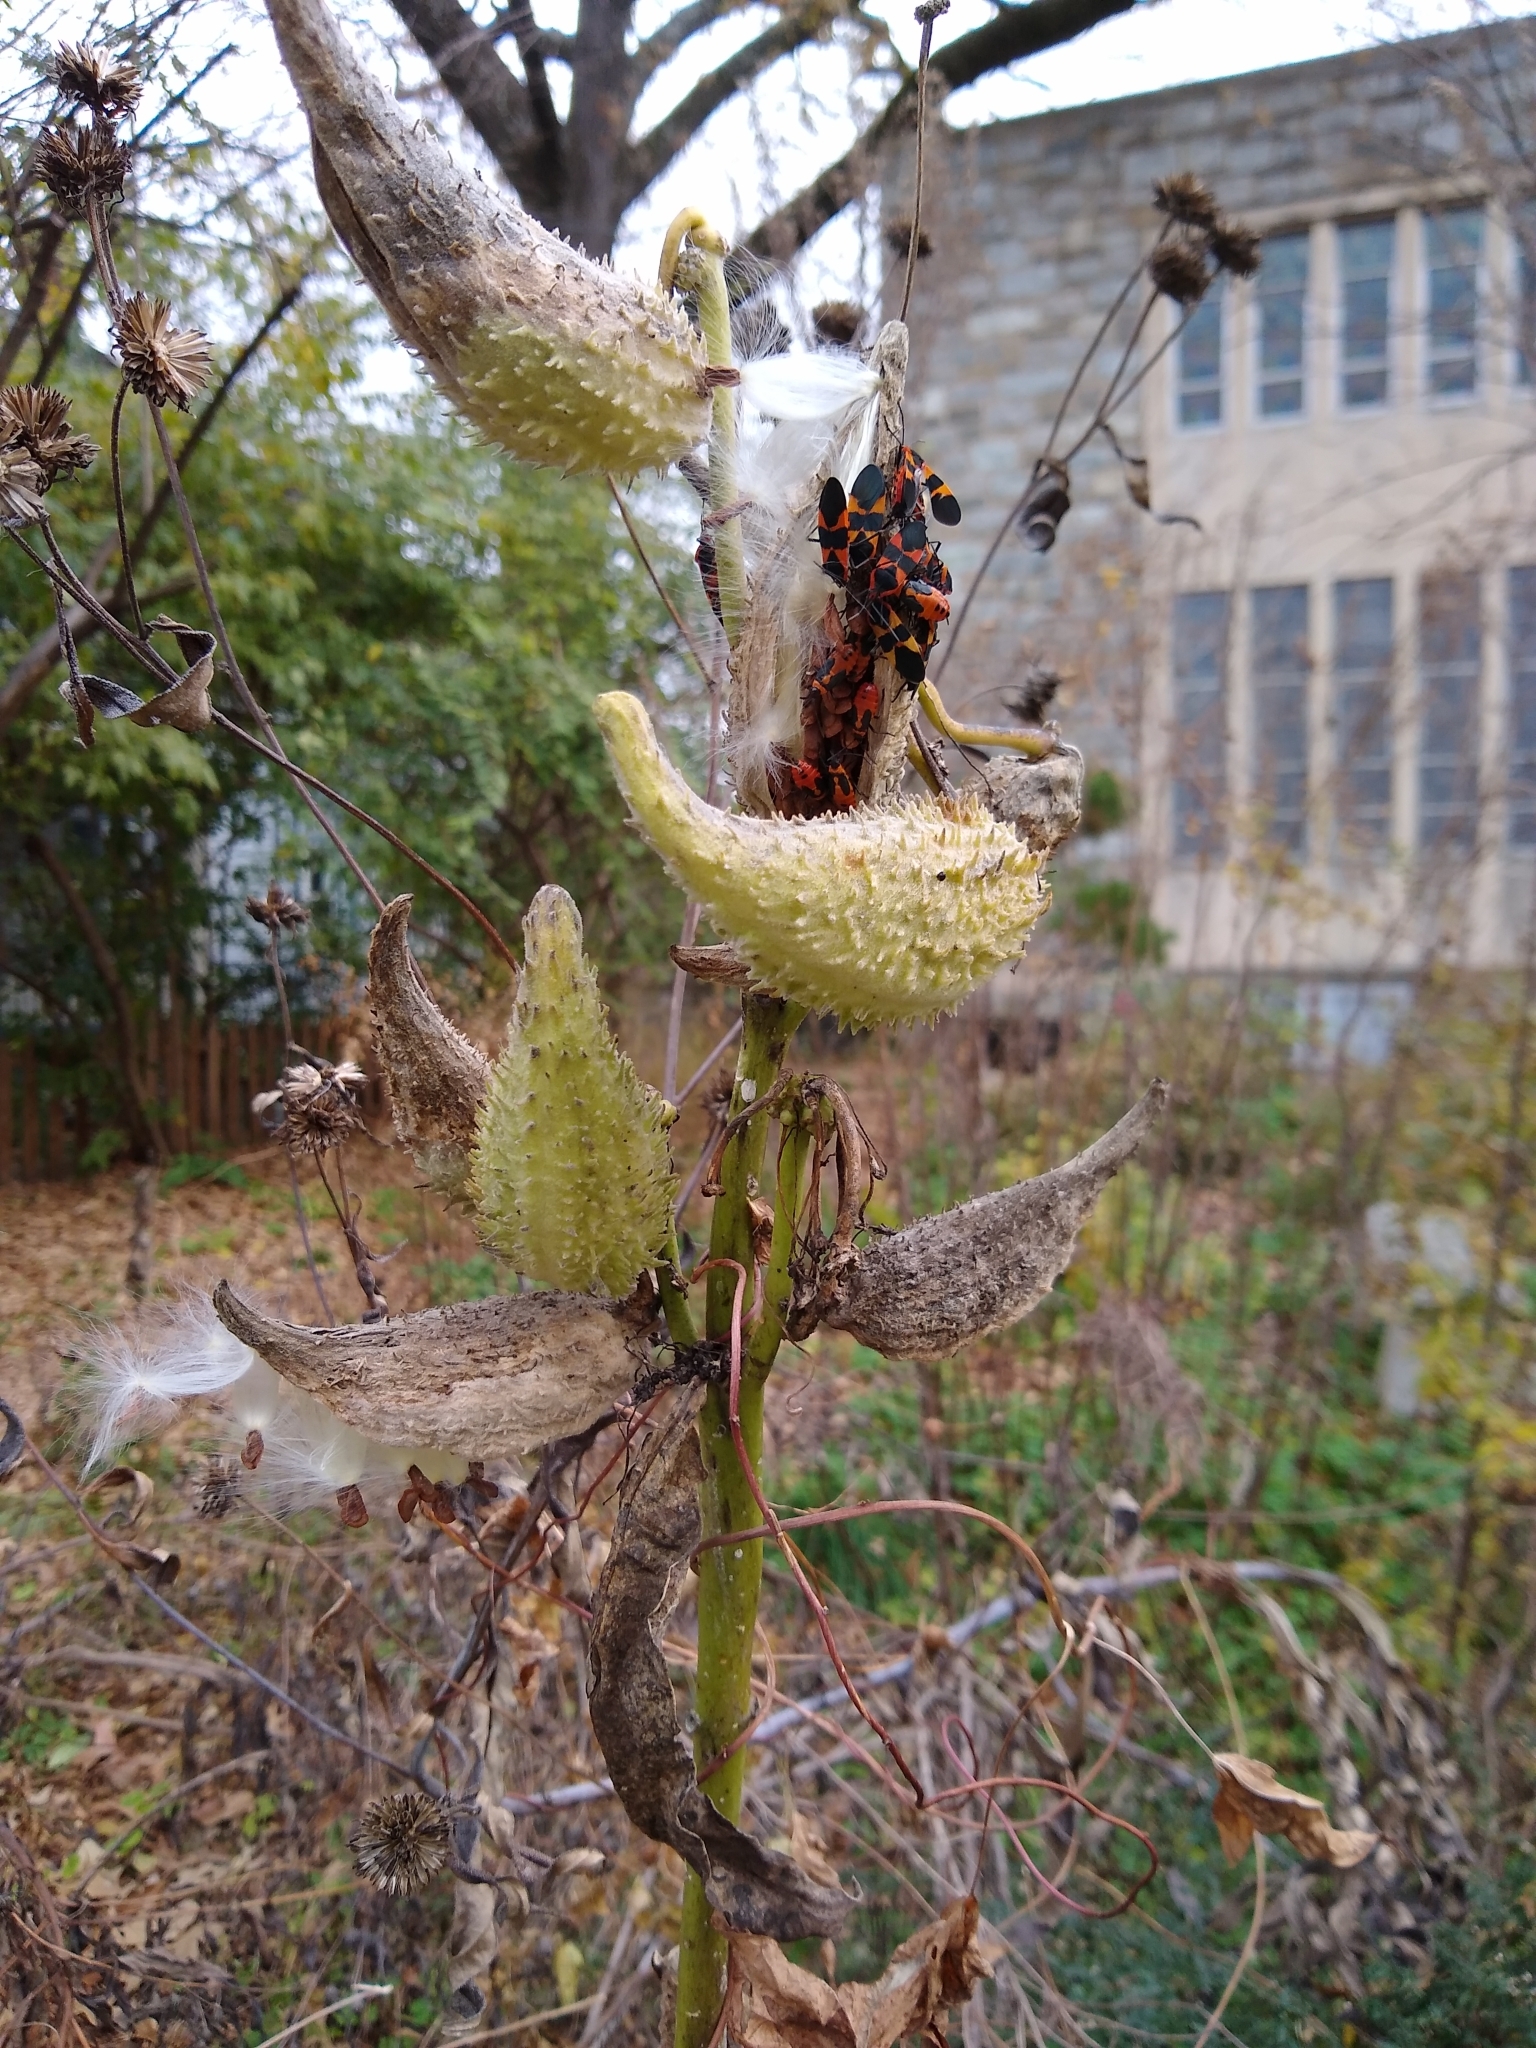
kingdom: Animalia
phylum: Arthropoda
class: Insecta
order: Hemiptera
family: Lygaeidae
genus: Oncopeltus
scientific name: Oncopeltus fasciatus
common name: Large milkweed bug
